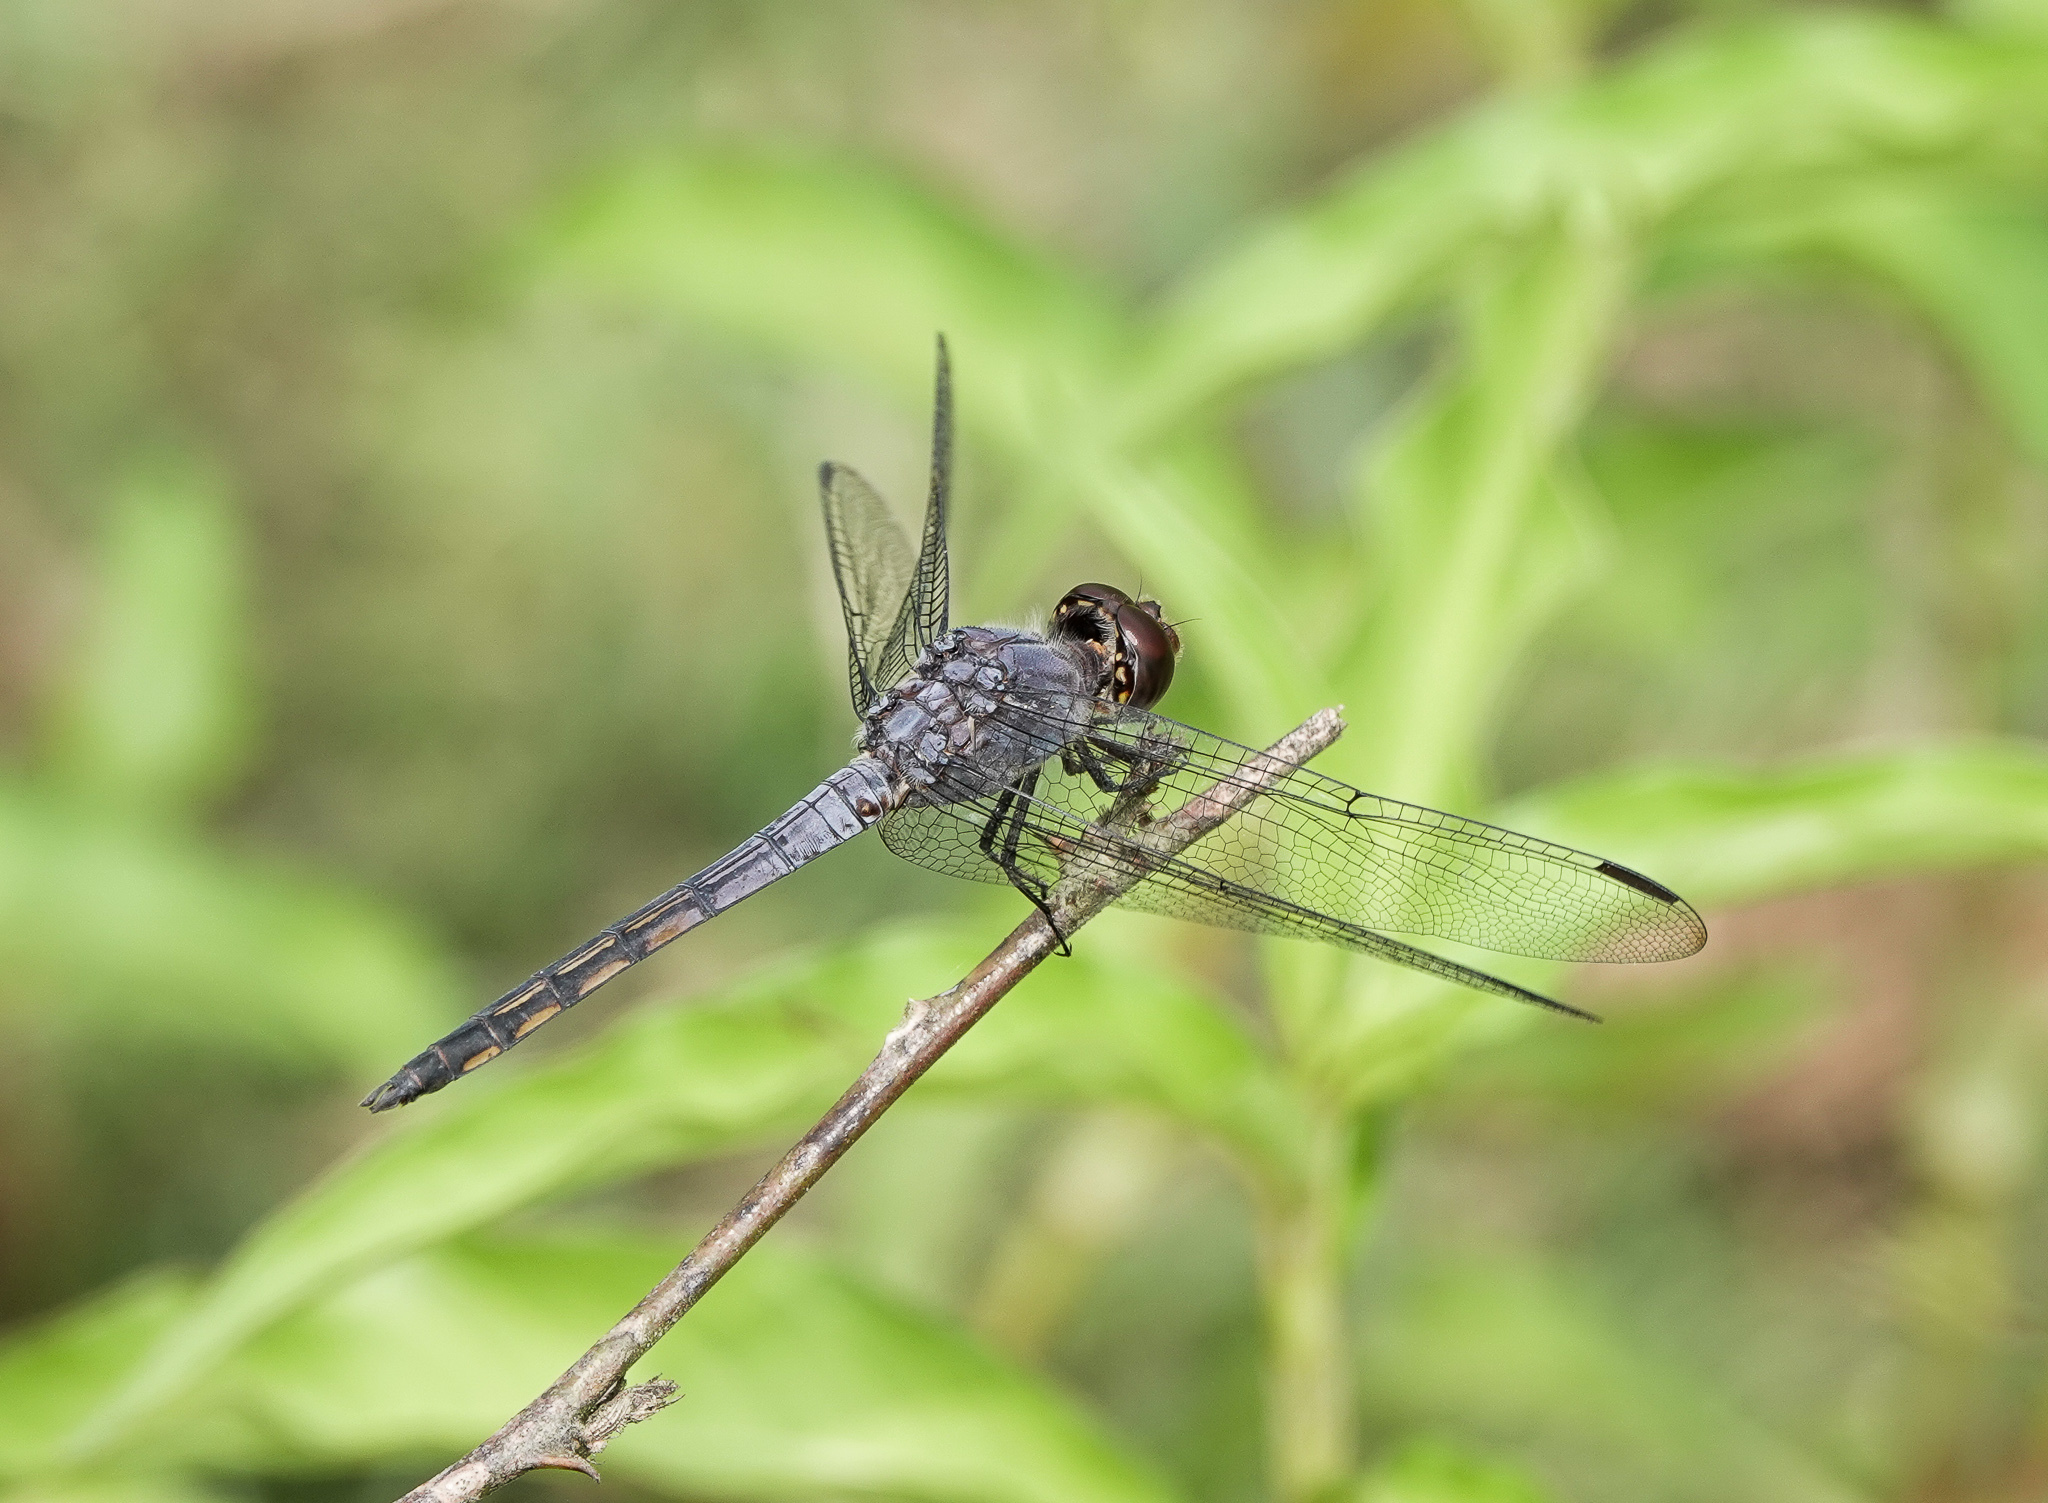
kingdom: Animalia
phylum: Arthropoda
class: Insecta
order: Odonata
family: Libellulidae
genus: Potamarcha
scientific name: Potamarcha congener
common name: Blue chaser
